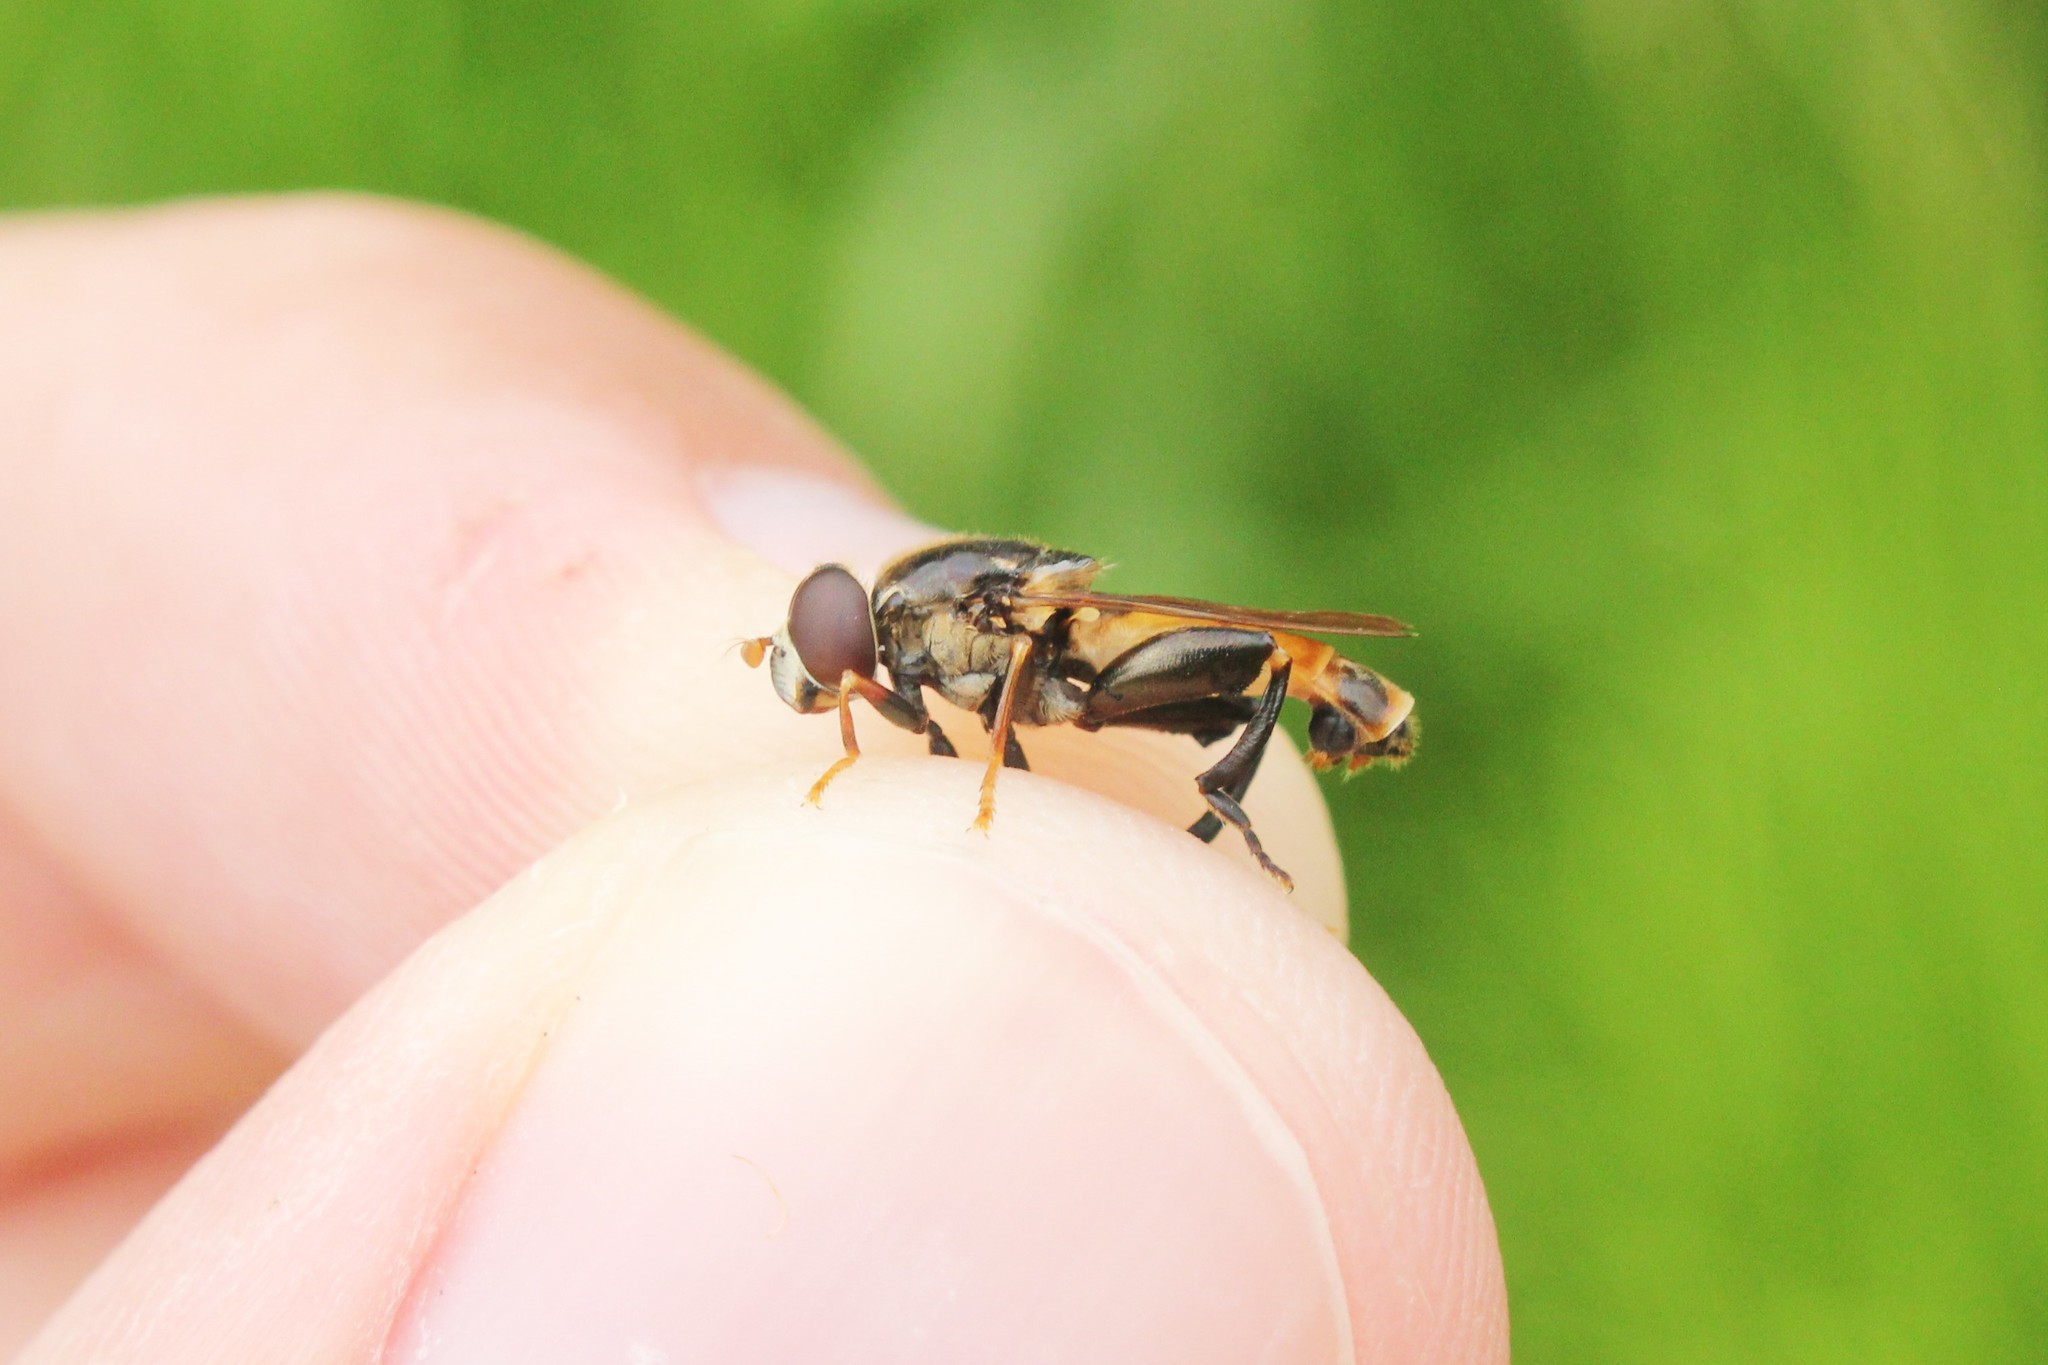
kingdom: Animalia
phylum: Arthropoda
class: Insecta
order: Diptera
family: Syrphidae
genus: Tropidia
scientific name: Tropidia quadrata
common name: Common thick-legged fly
